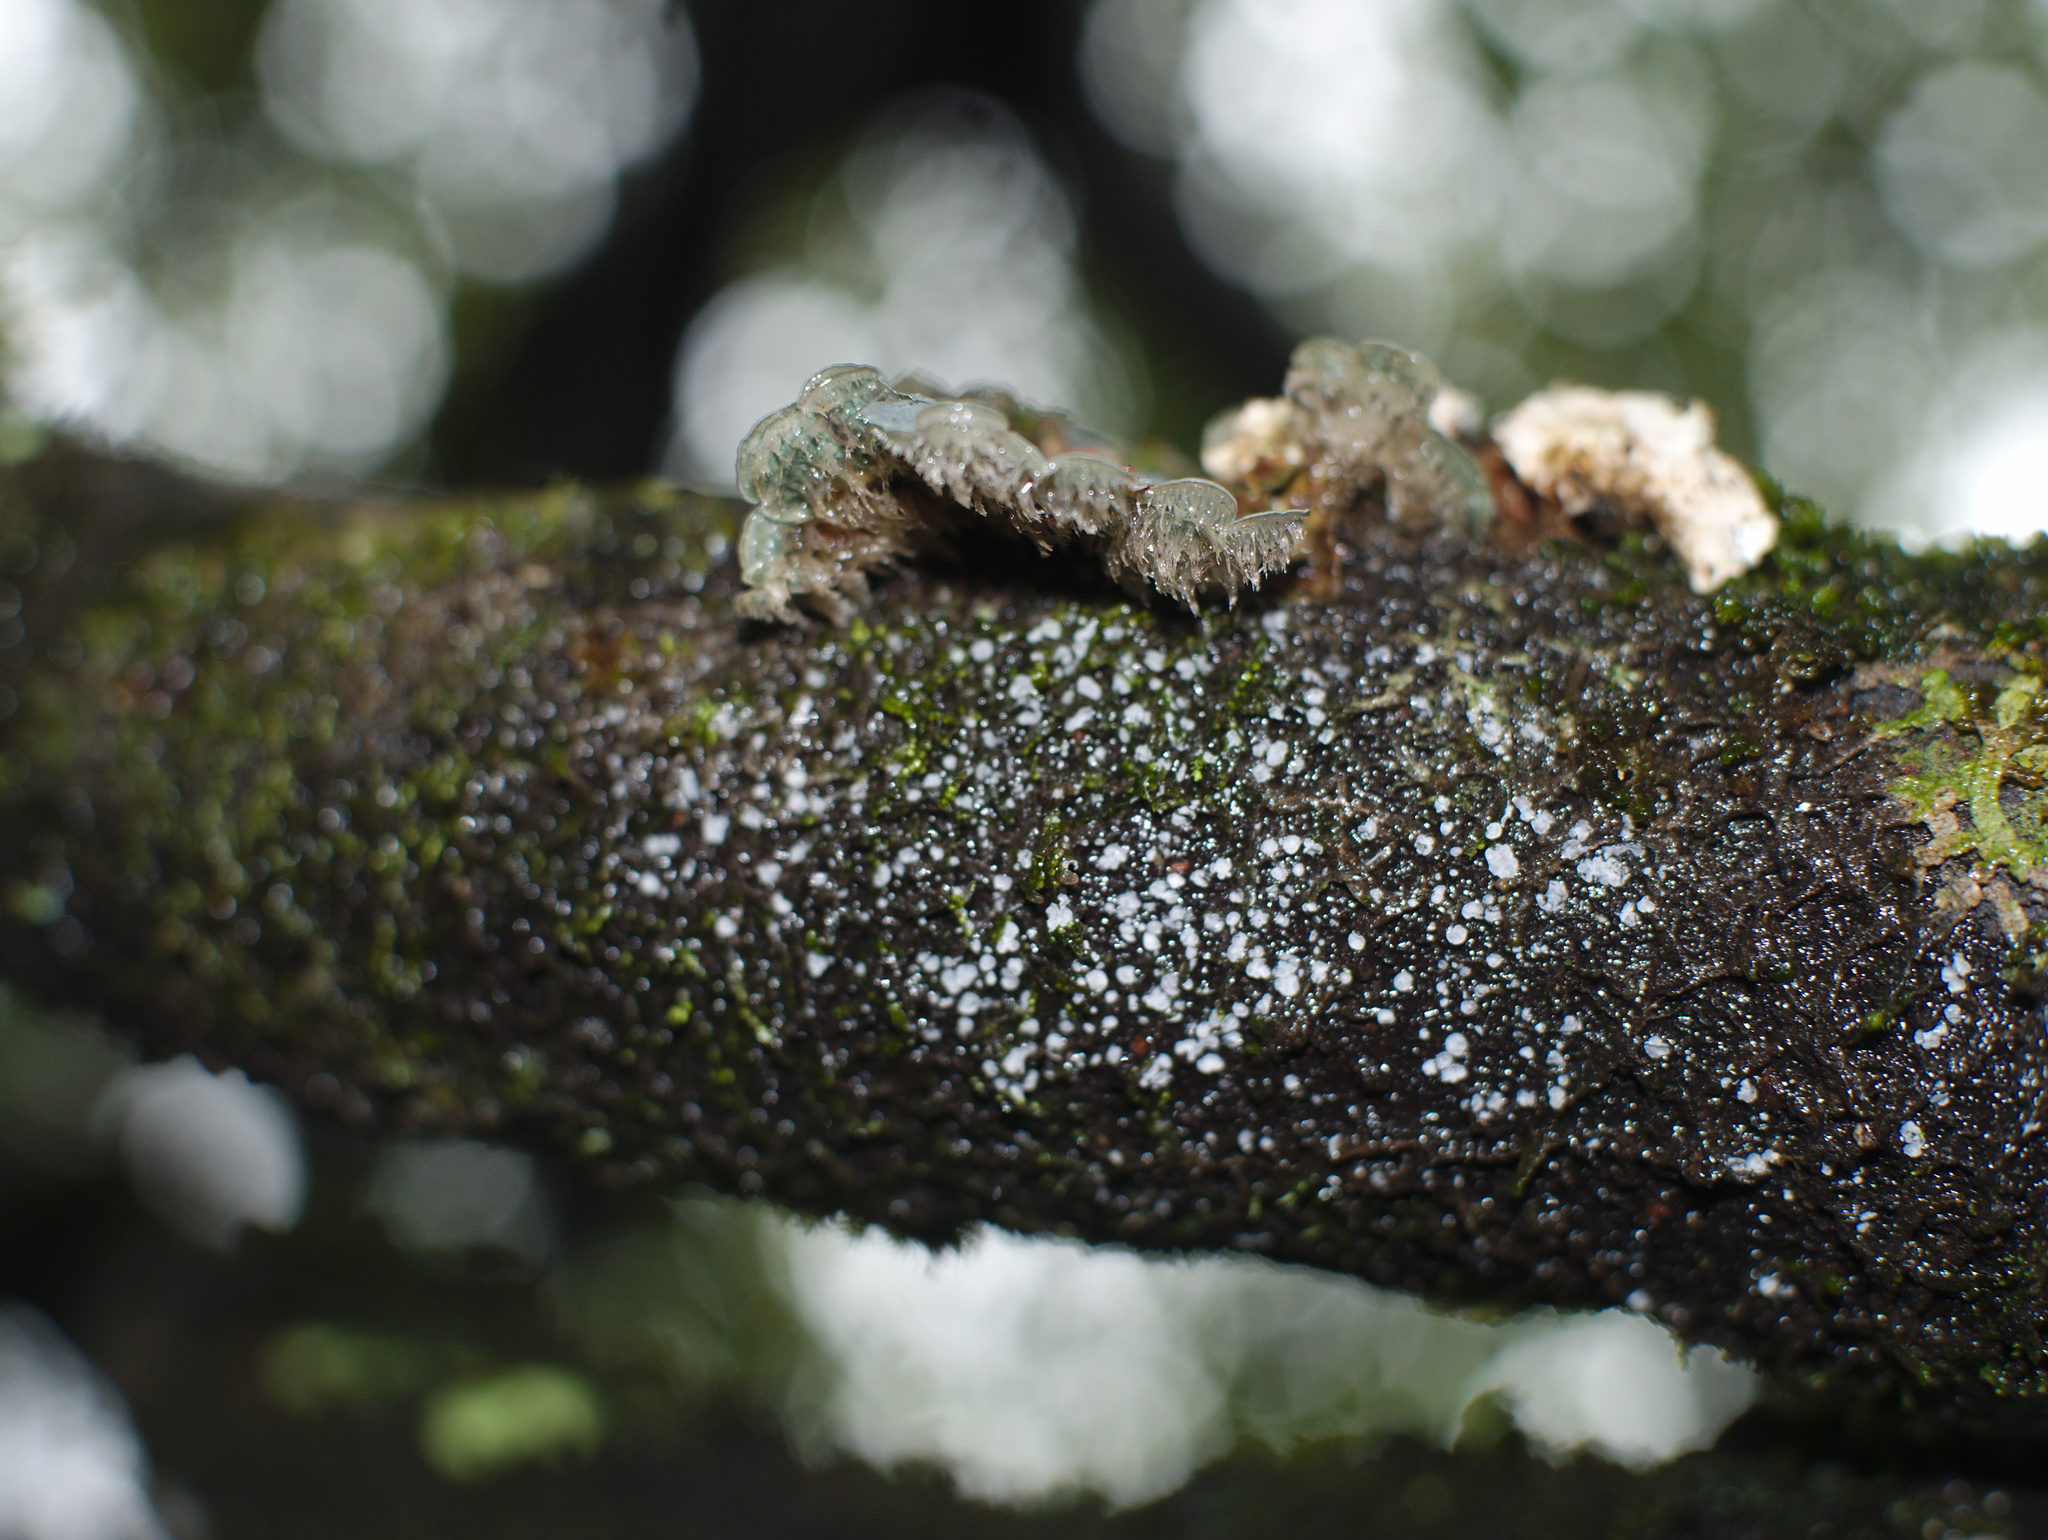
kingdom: Fungi
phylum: Ascomycota
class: Lecanoromycetes
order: Peltigerales
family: Pannariaceae
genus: Degelia
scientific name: Degelia gayana
